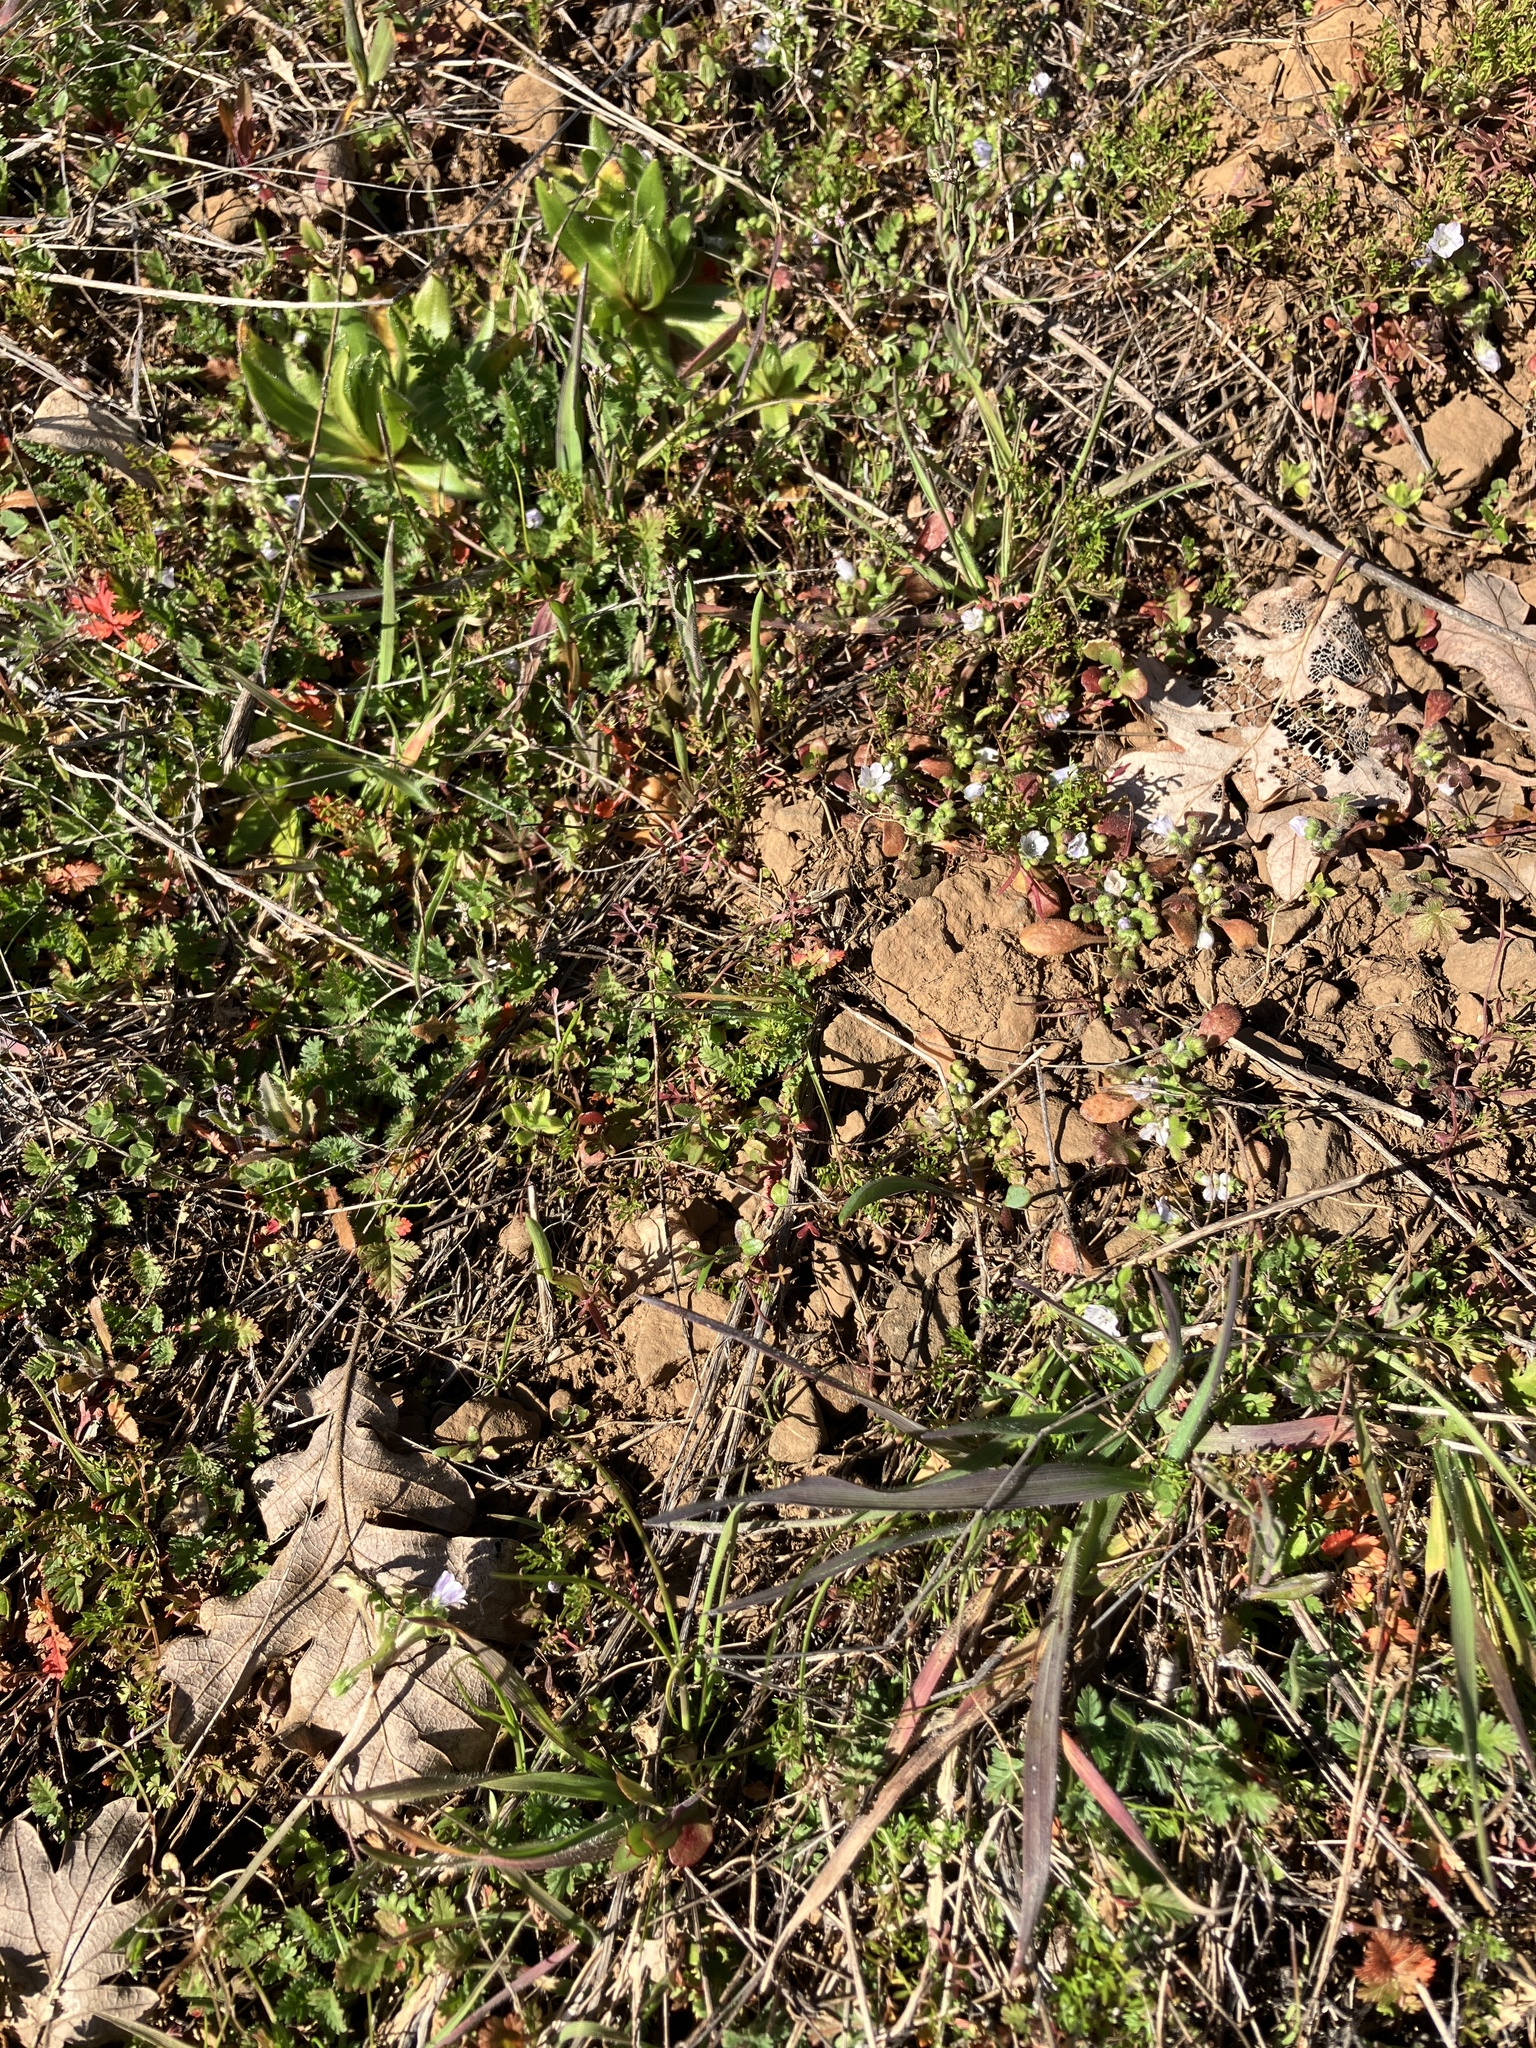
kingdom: Plantae
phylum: Tracheophyta
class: Magnoliopsida
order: Boraginales
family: Hydrophyllaceae
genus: Nemophila
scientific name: Nemophila pedunculata
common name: Little-foot baby-blue-eyes
